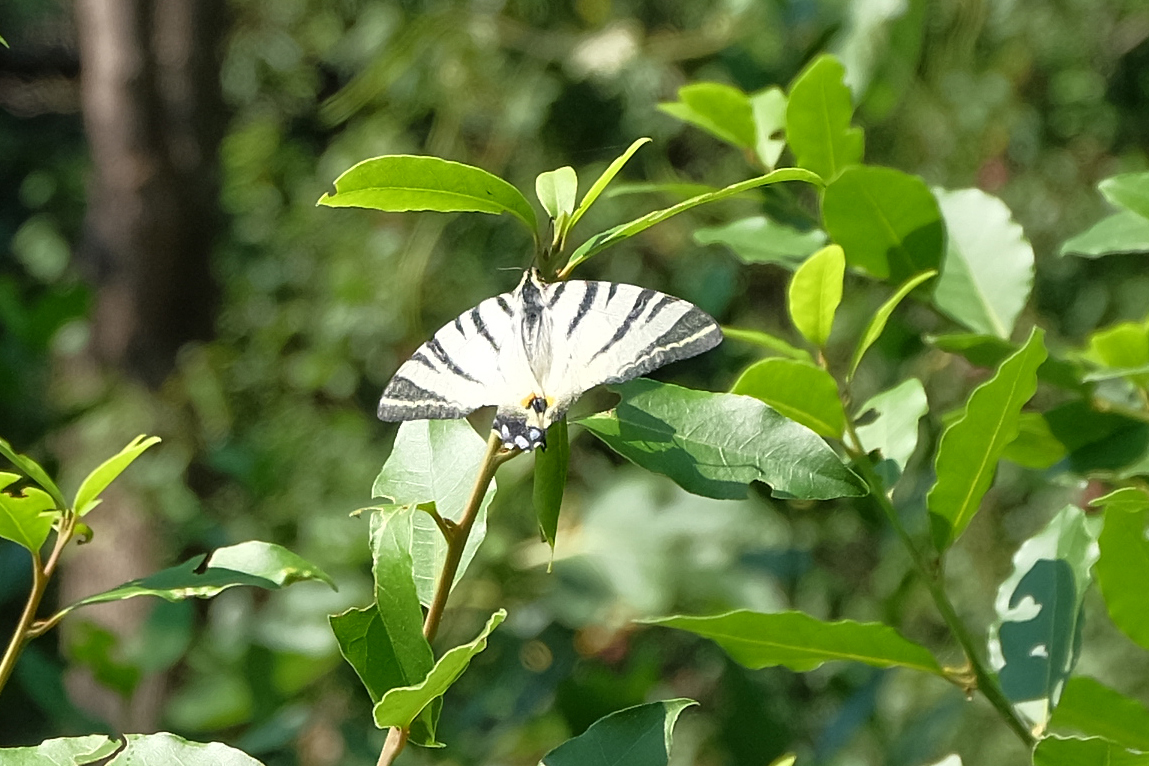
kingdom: Animalia
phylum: Arthropoda
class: Insecta
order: Lepidoptera
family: Papilionidae
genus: Iphiclides
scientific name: Iphiclides podalirius
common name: Scarce swallowtail
